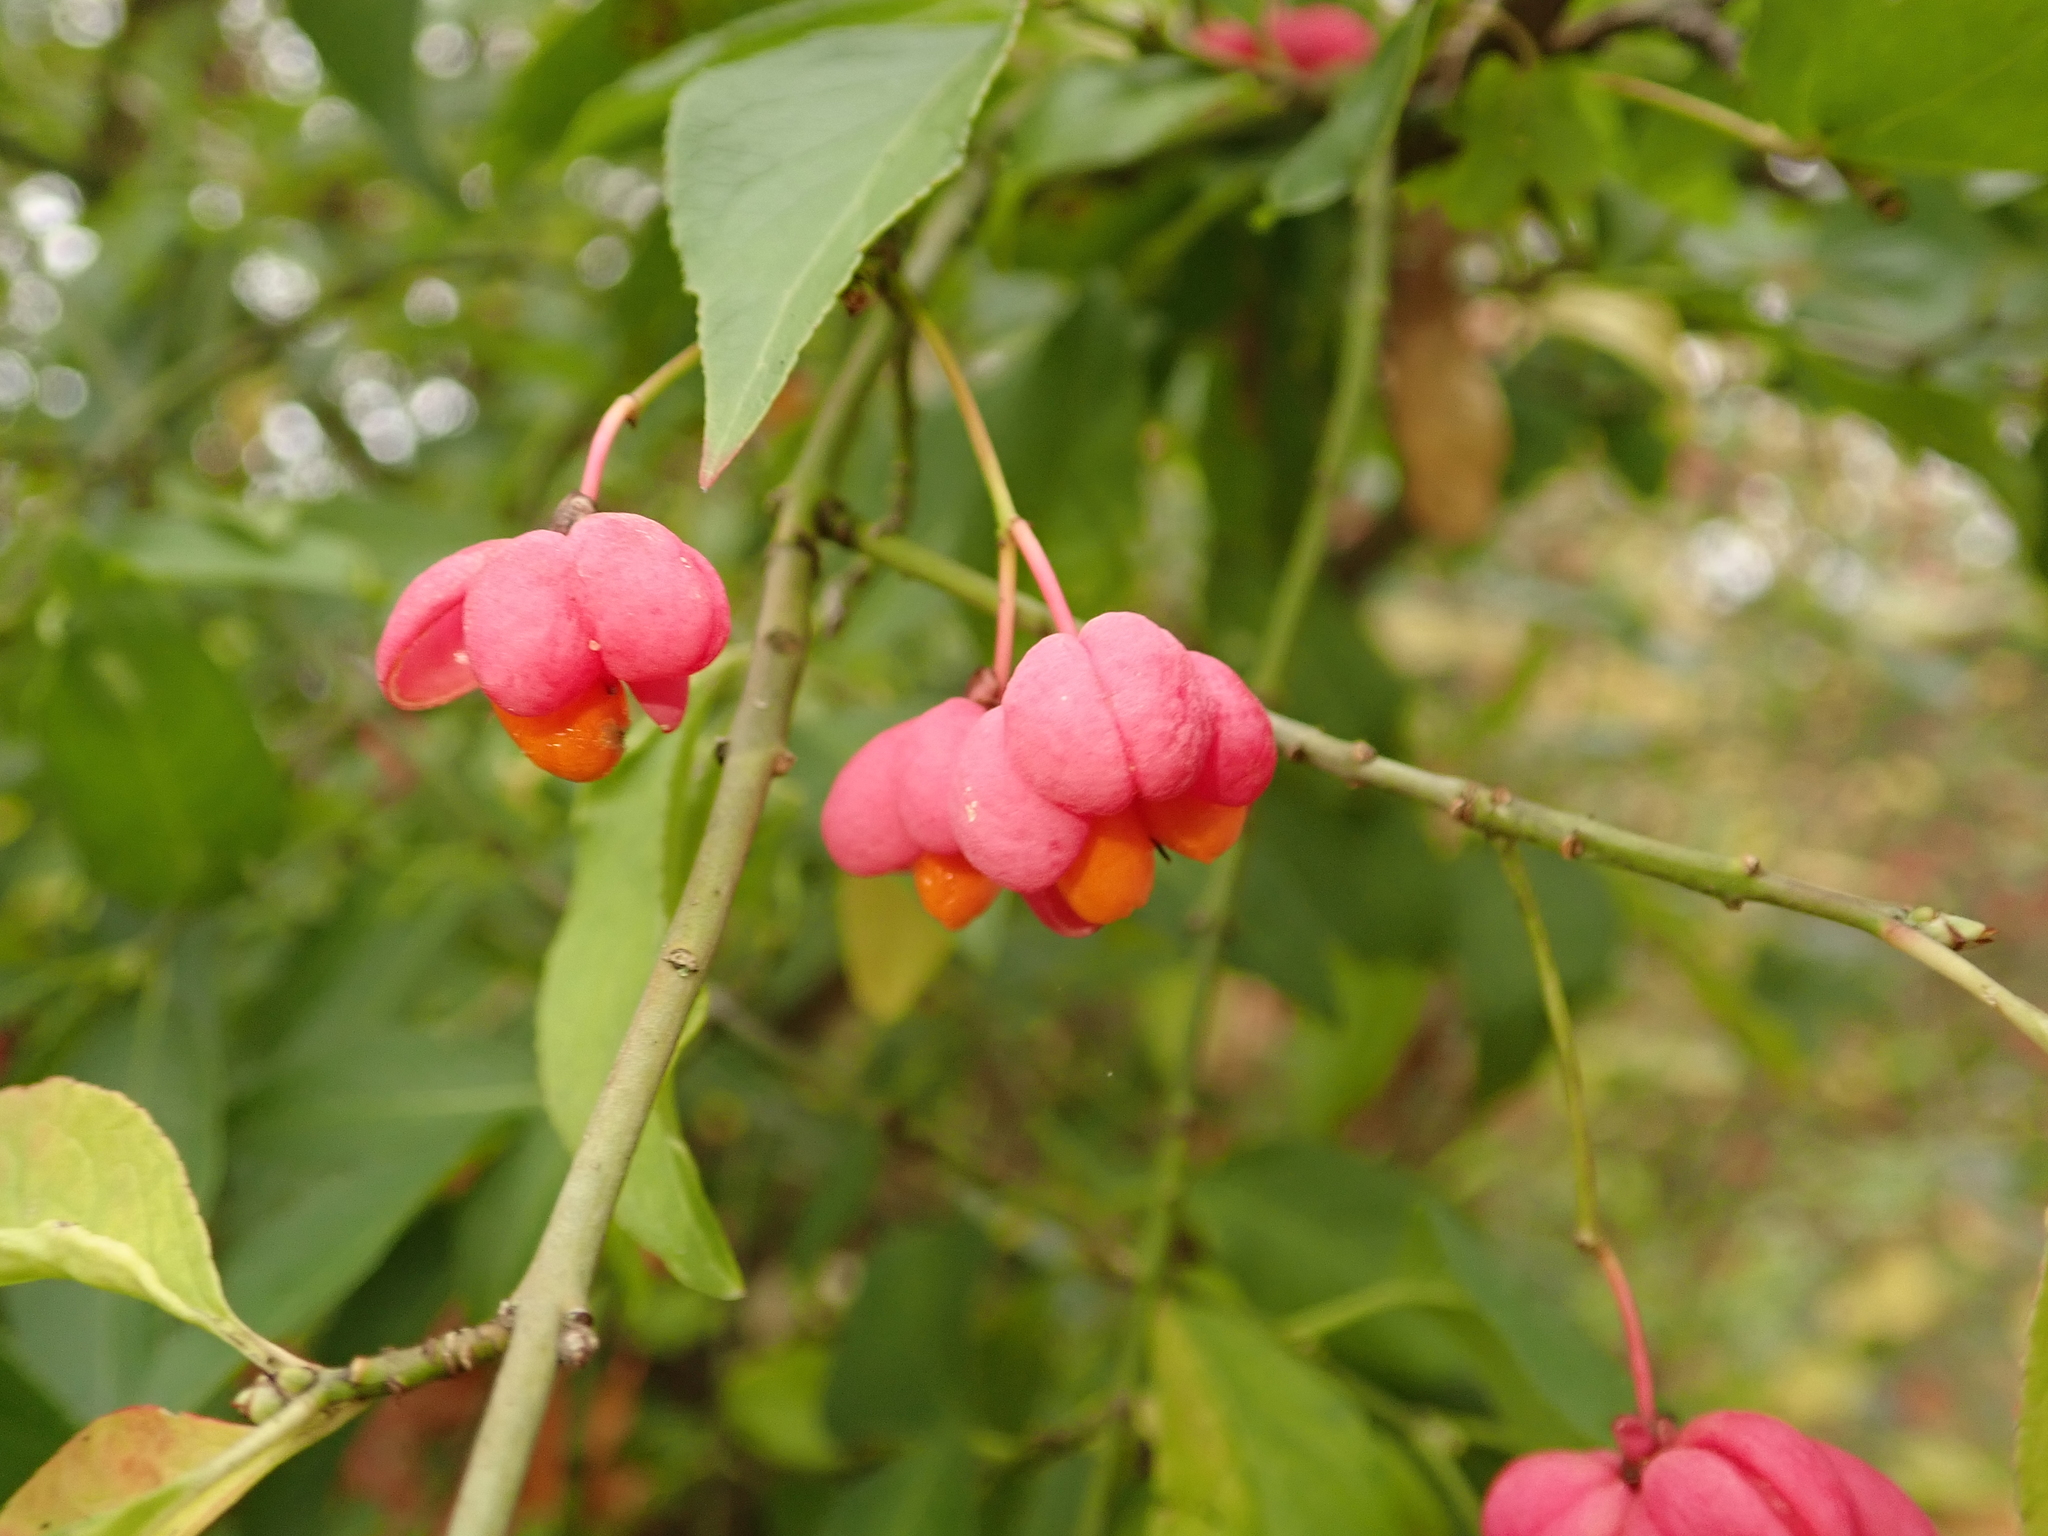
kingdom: Plantae
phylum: Tracheophyta
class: Magnoliopsida
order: Celastrales
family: Celastraceae
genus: Euonymus
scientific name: Euonymus europaeus
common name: Spindle
